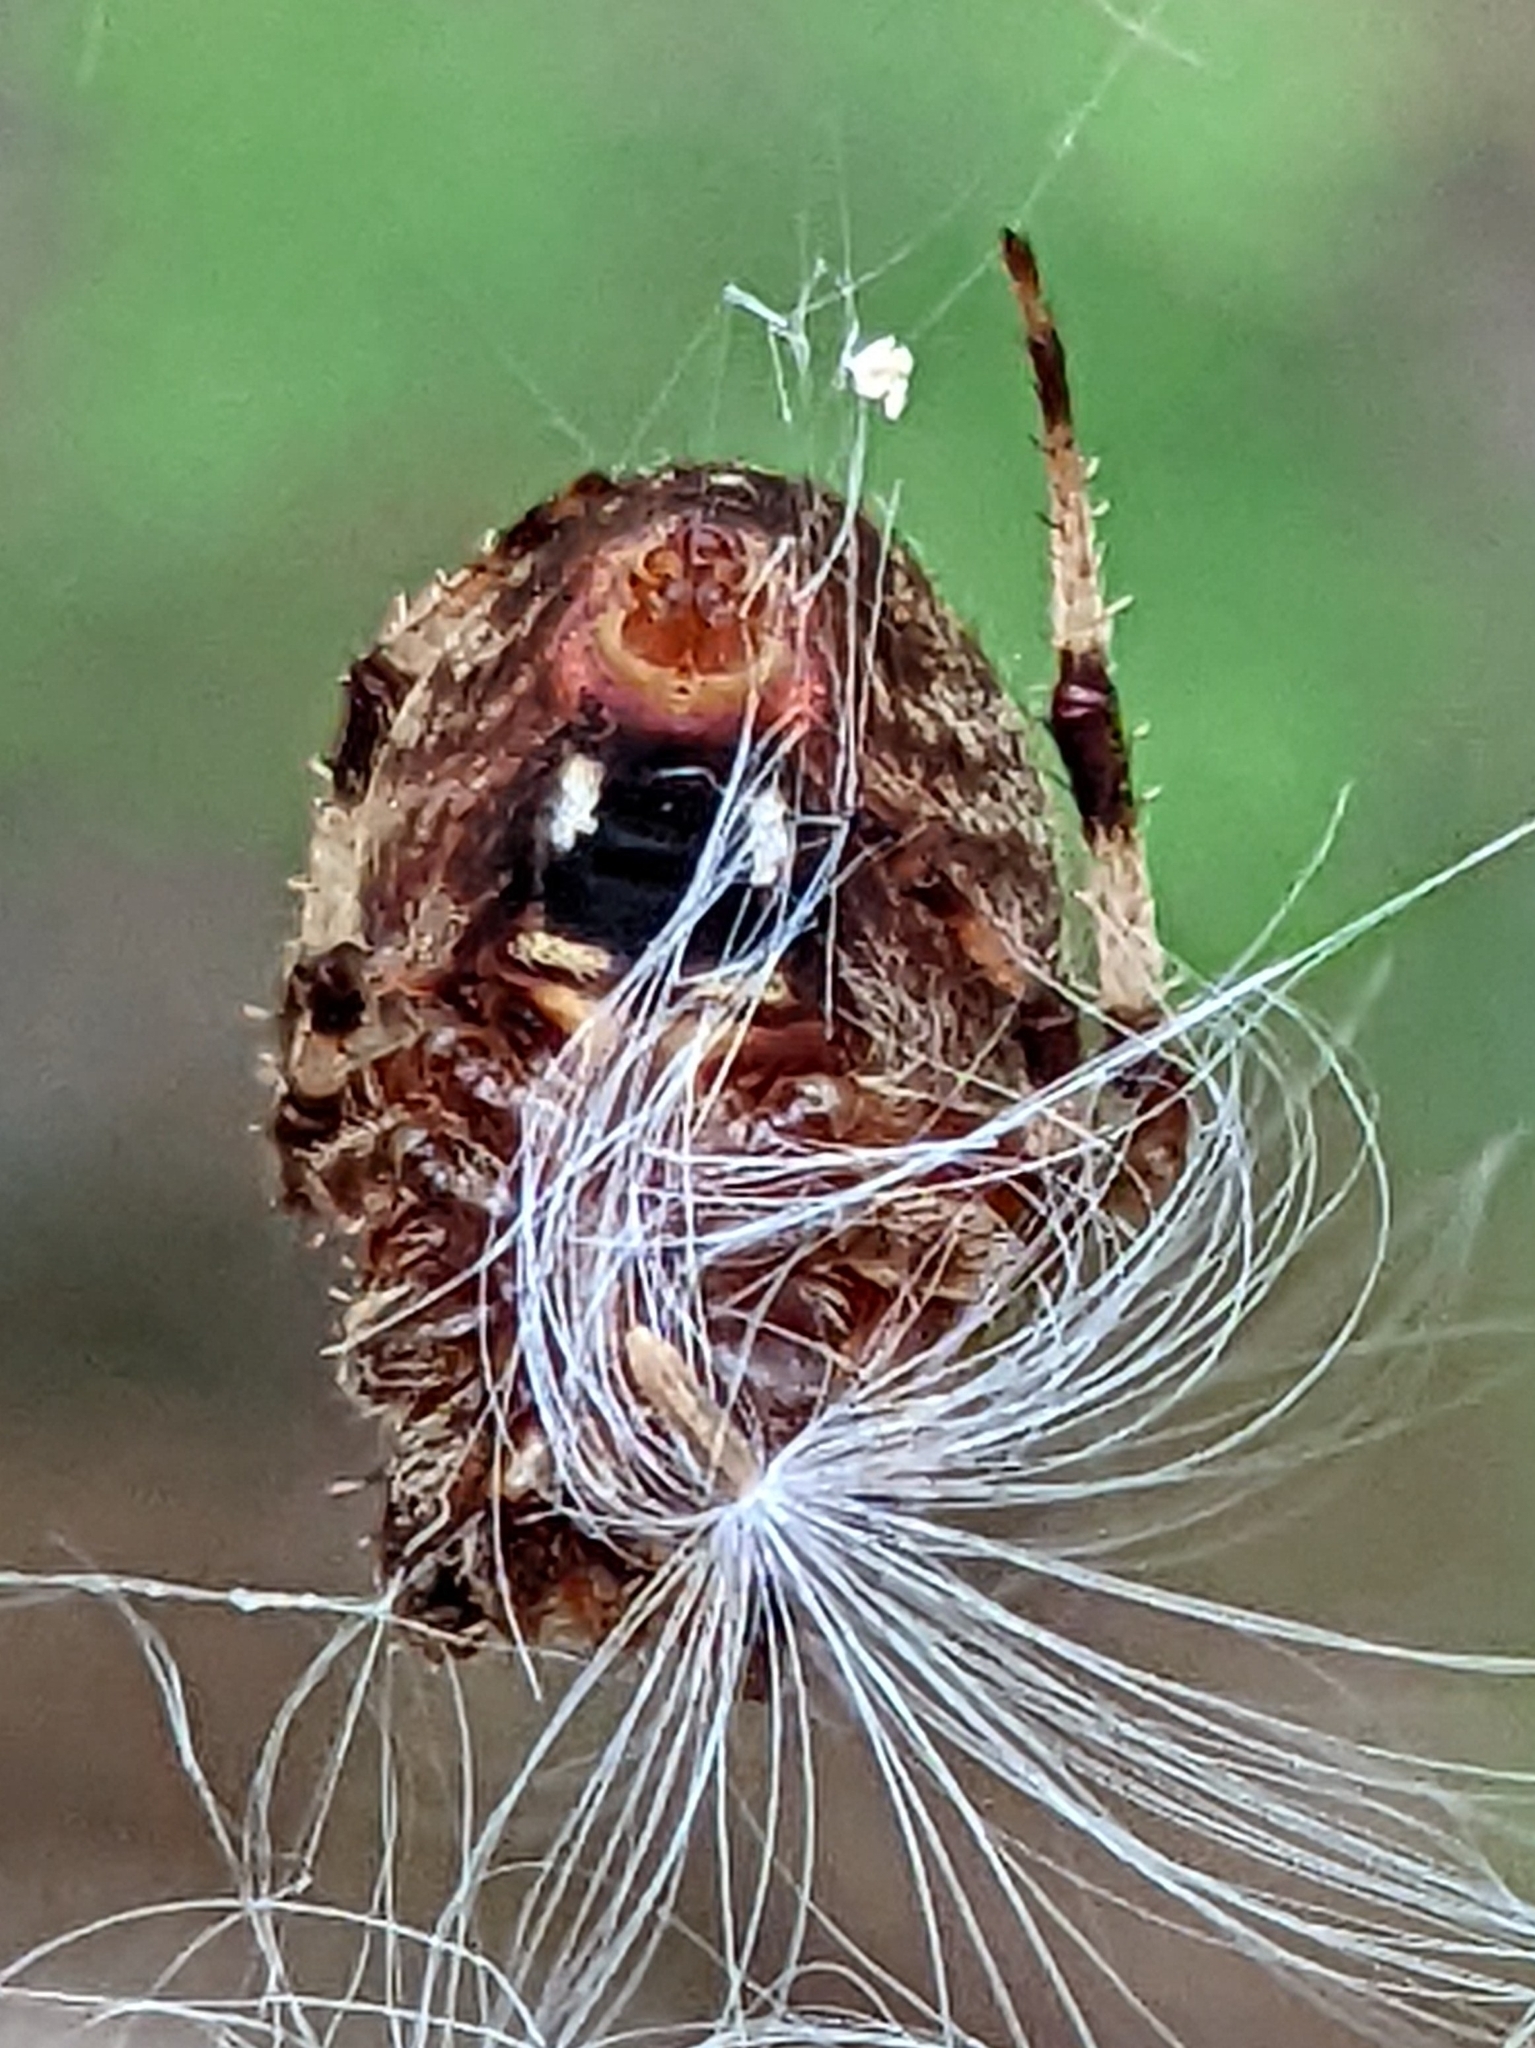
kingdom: Animalia
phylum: Arthropoda
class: Arachnida
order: Araneae
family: Araneidae
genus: Neoscona
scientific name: Neoscona crucifera
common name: Spotted orbweaver
